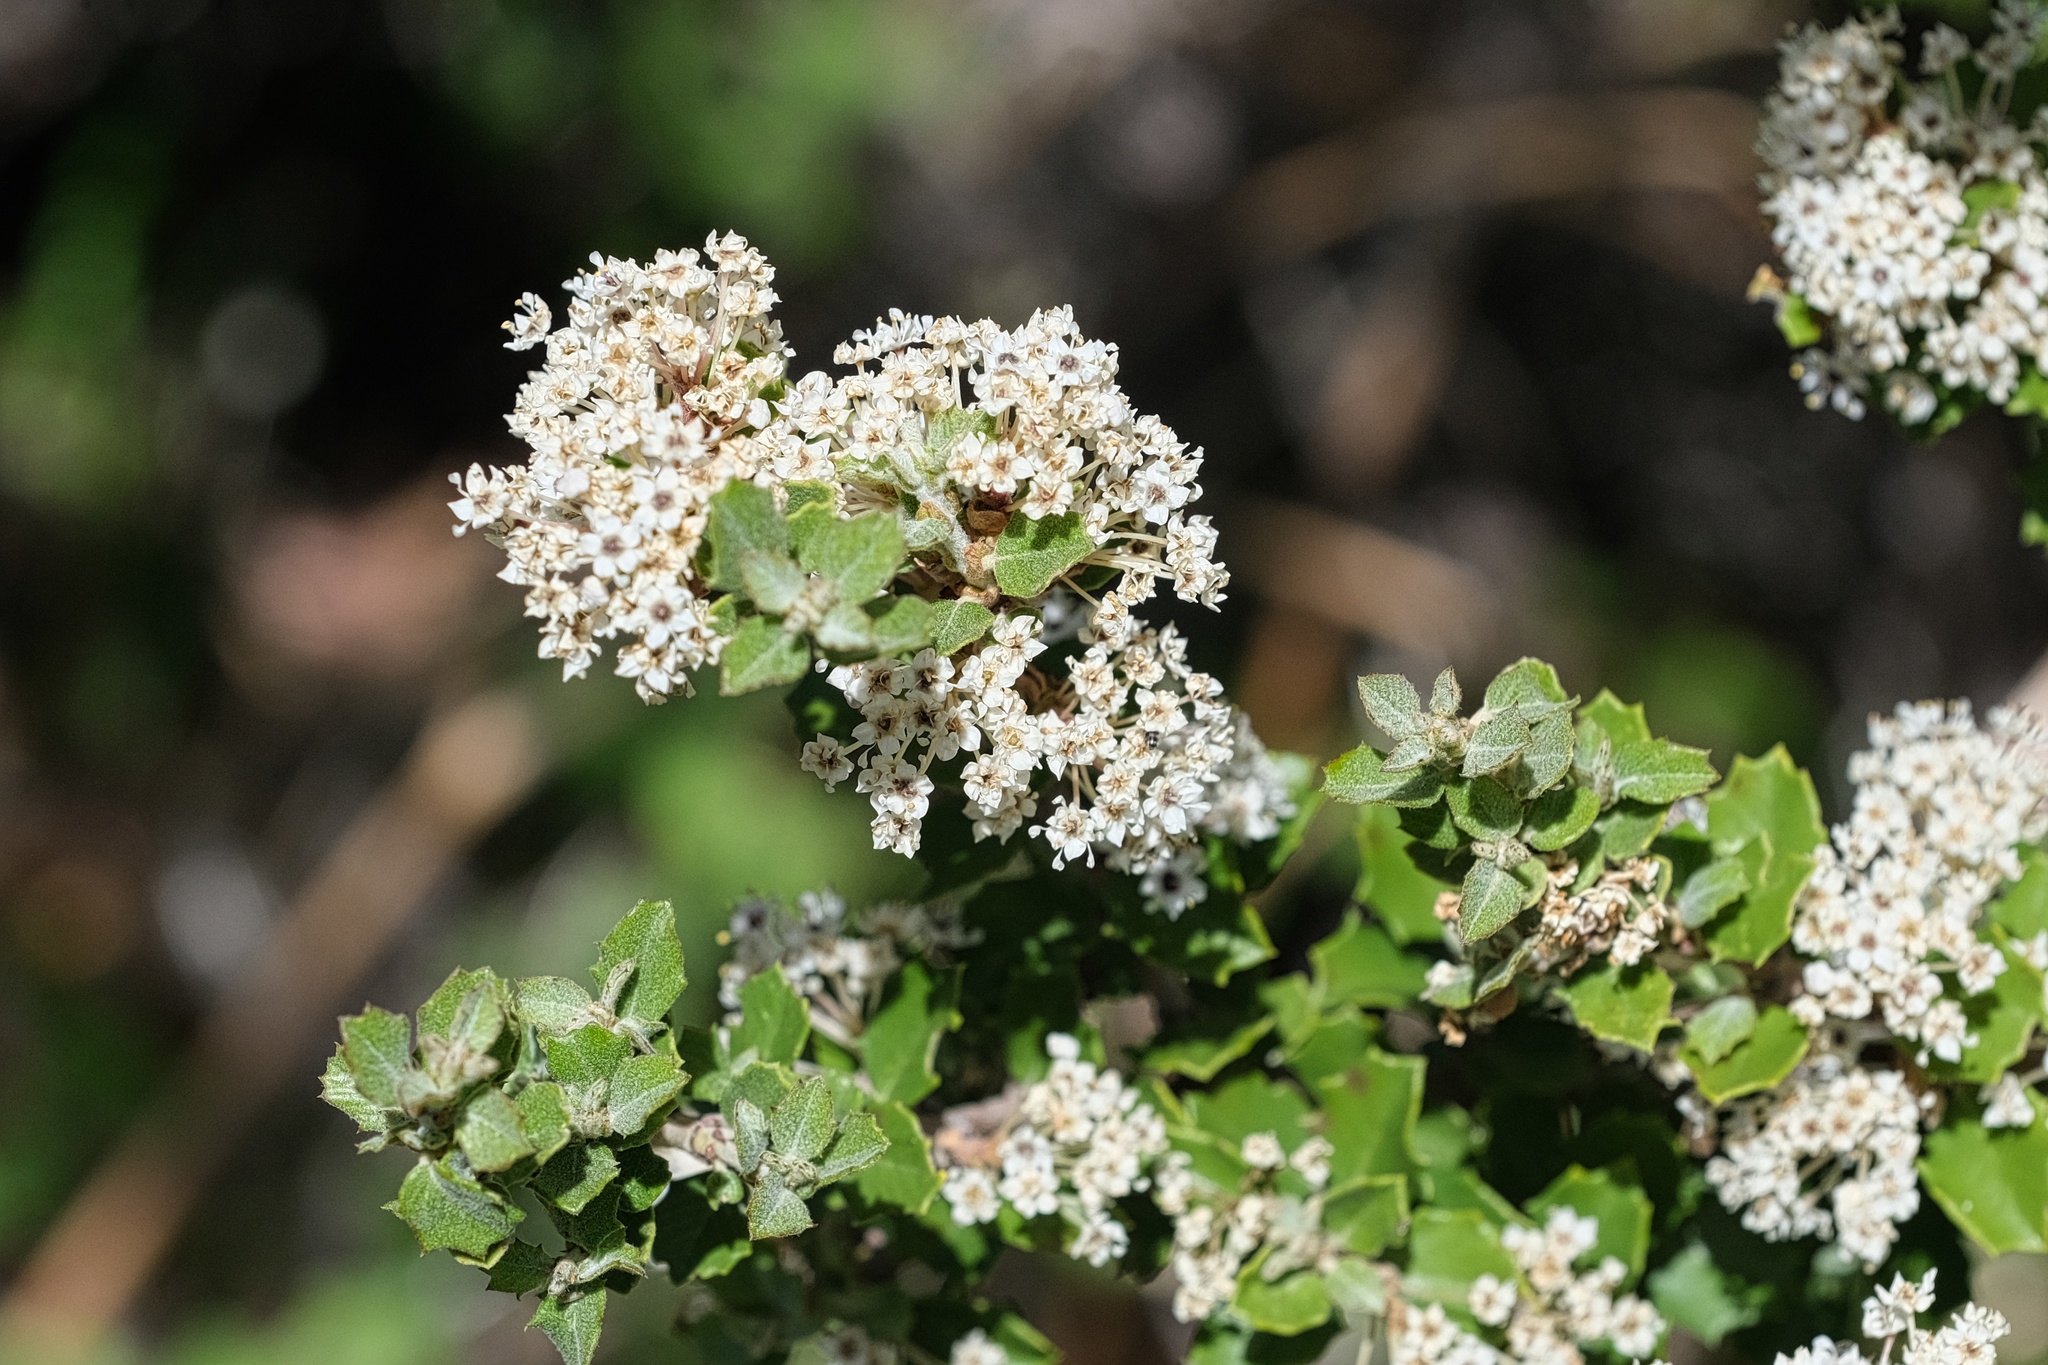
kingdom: Plantae
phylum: Tracheophyta
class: Magnoliopsida
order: Rosales
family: Rhamnaceae
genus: Ceanothus
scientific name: Ceanothus perplexans
